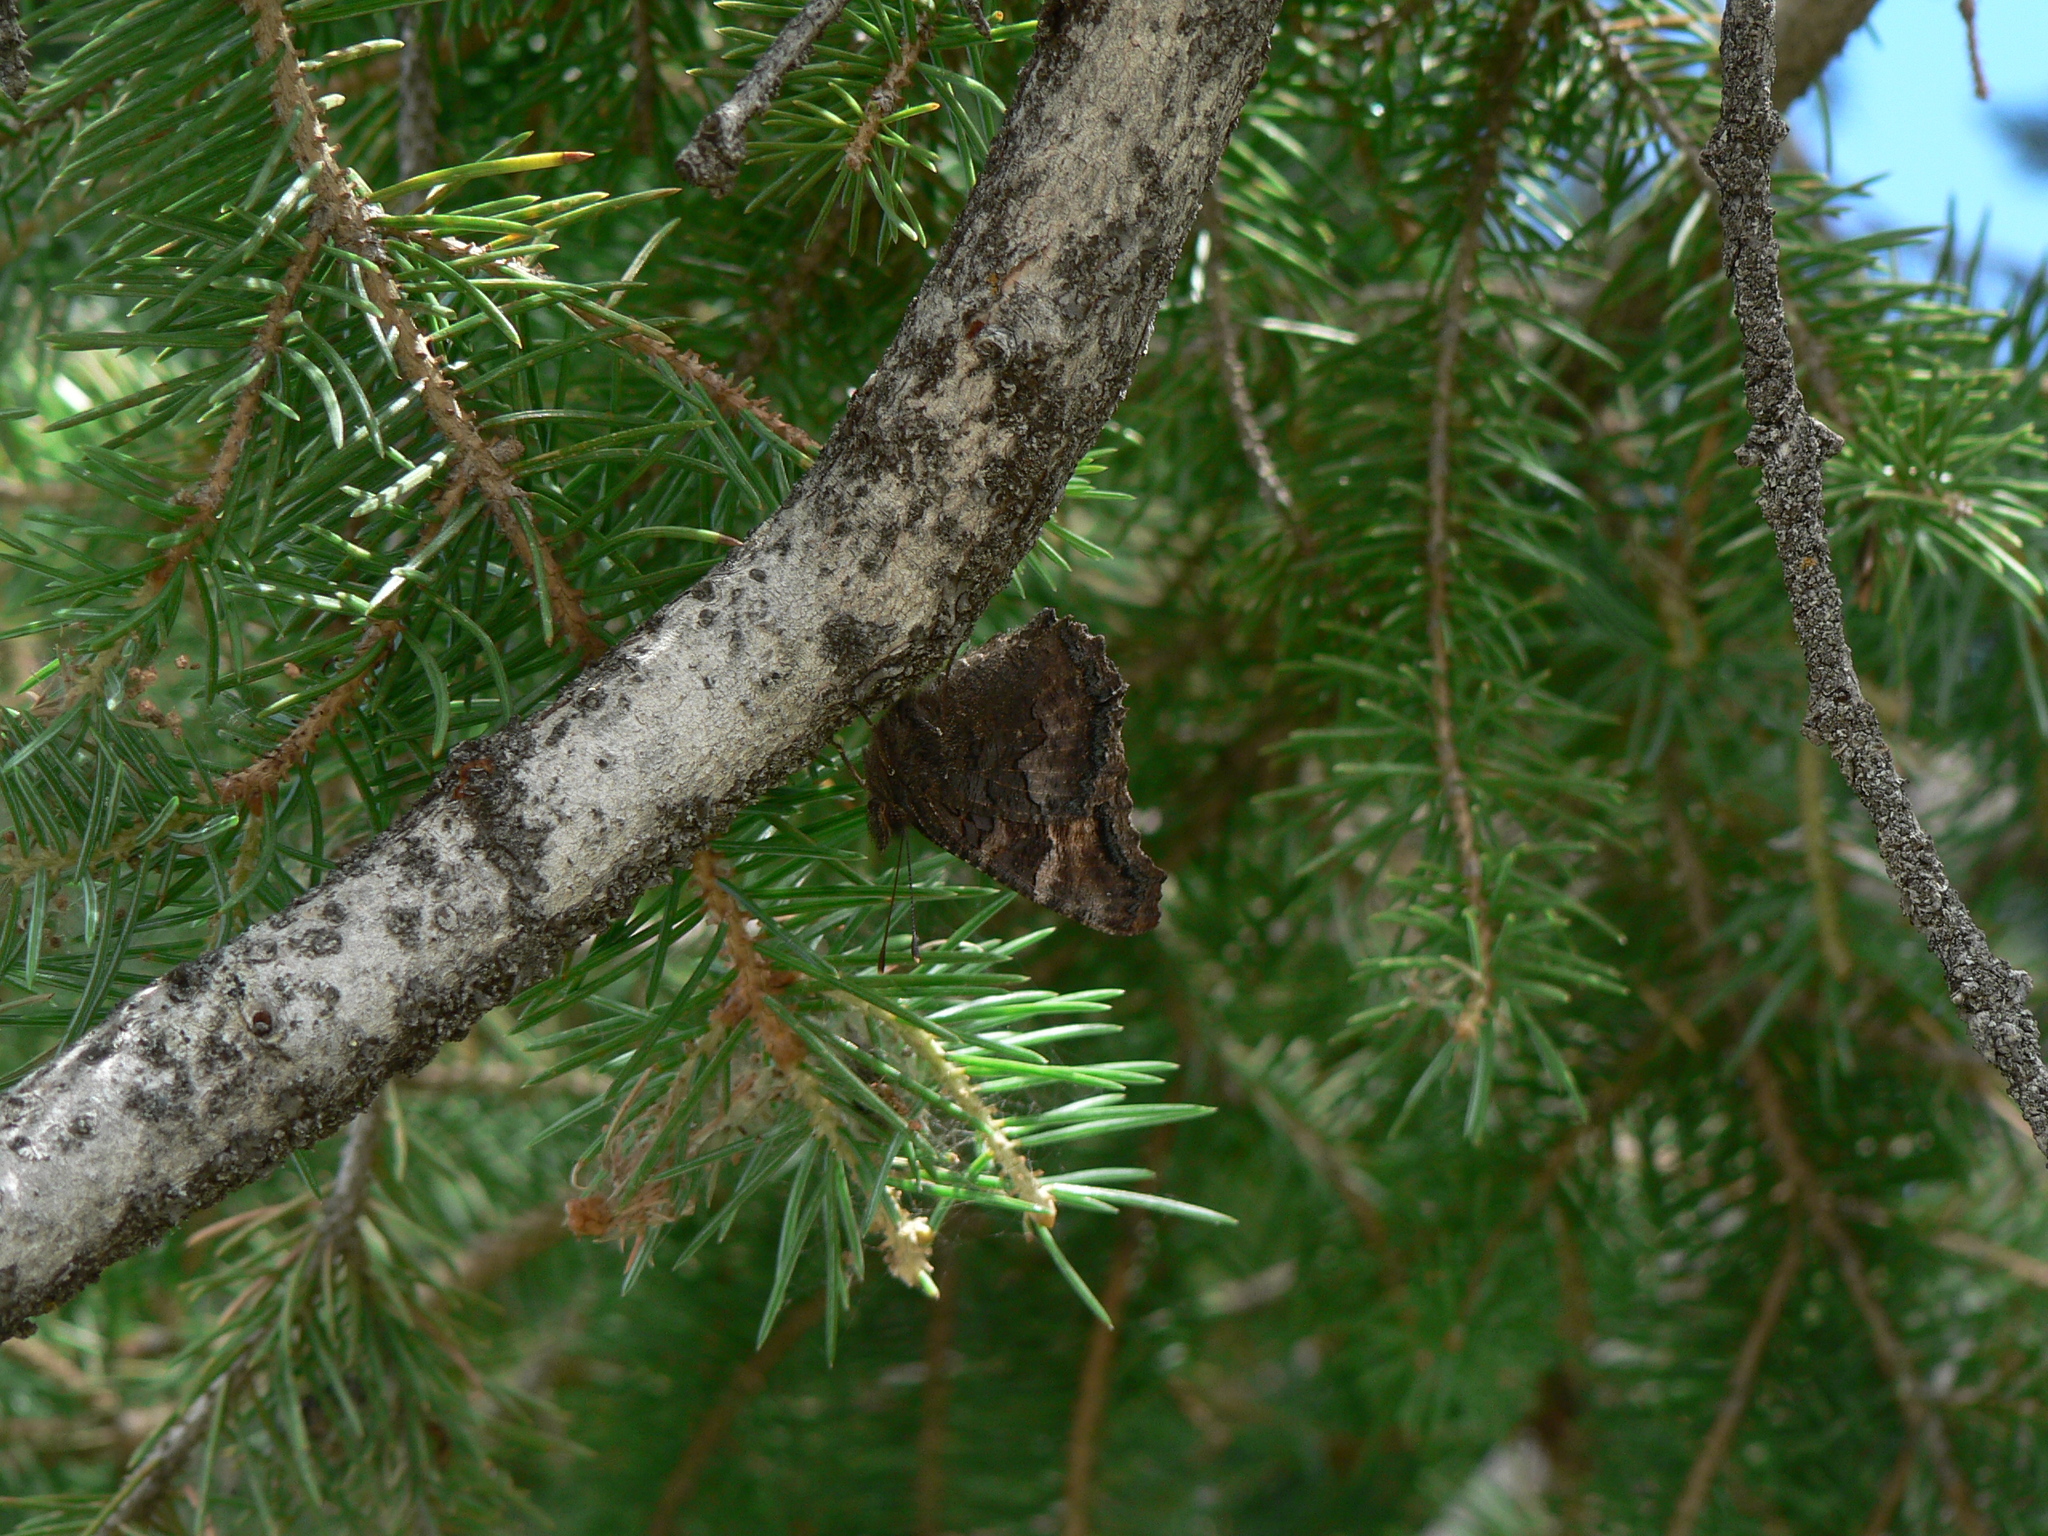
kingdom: Animalia
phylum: Arthropoda
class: Insecta
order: Lepidoptera
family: Nymphalidae
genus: Nymphalis
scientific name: Nymphalis californica
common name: California tortoiseshell
